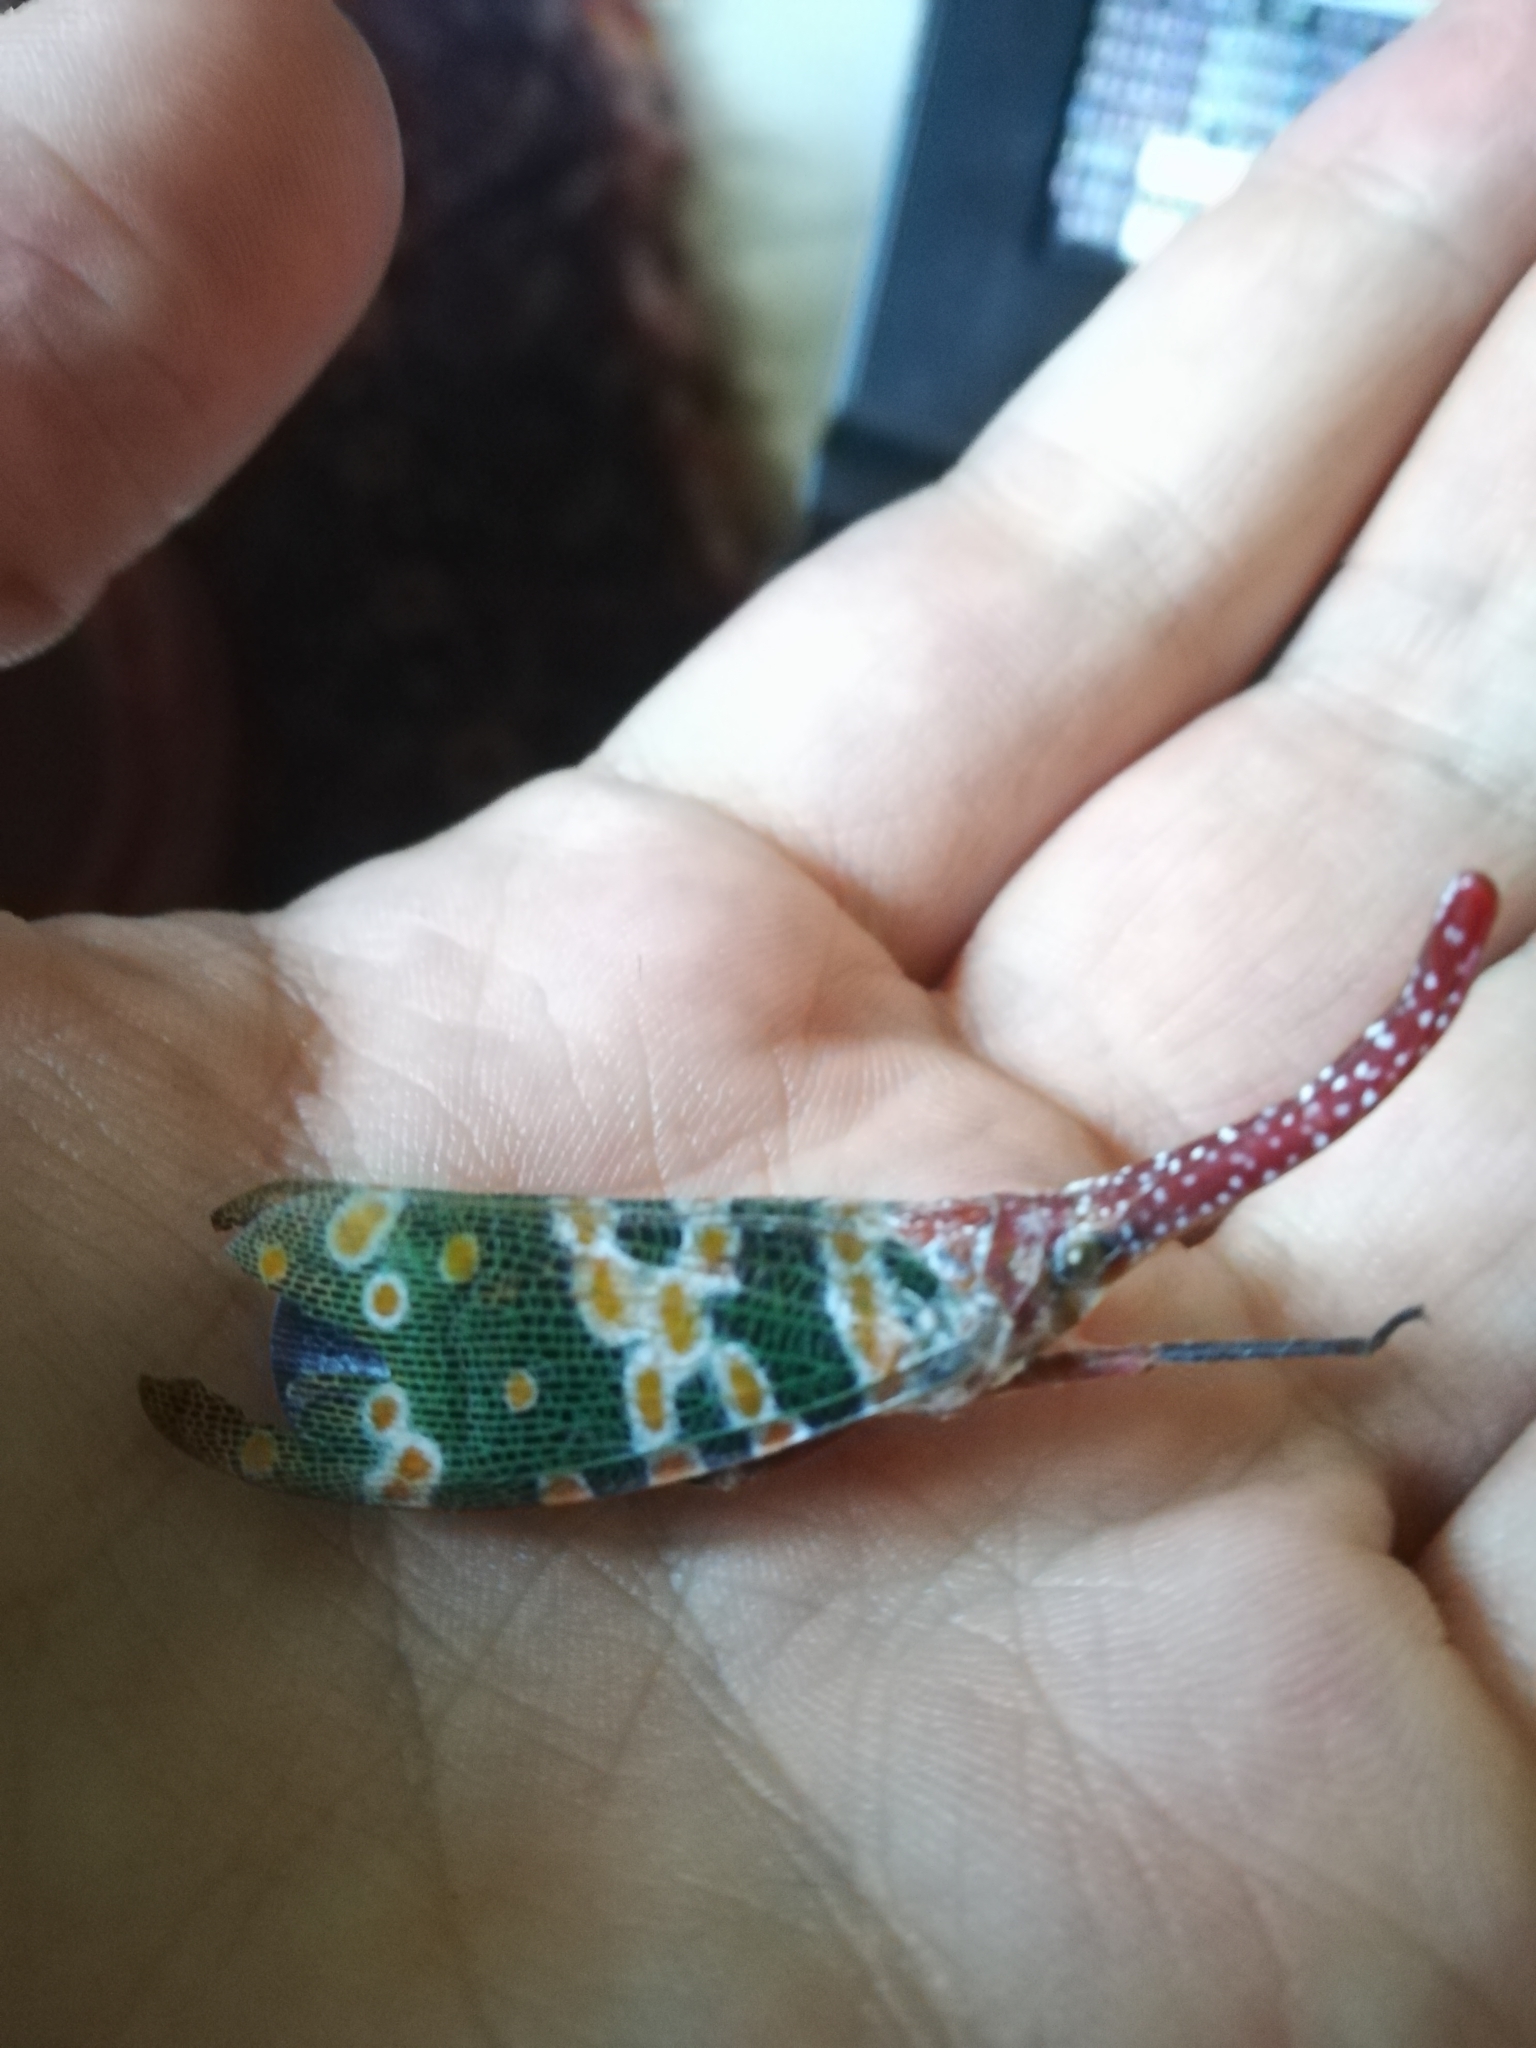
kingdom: Animalia
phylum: Arthropoda
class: Insecta
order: Hemiptera
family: Fulgoridae
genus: Pyrops
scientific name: Pyrops candelaria
